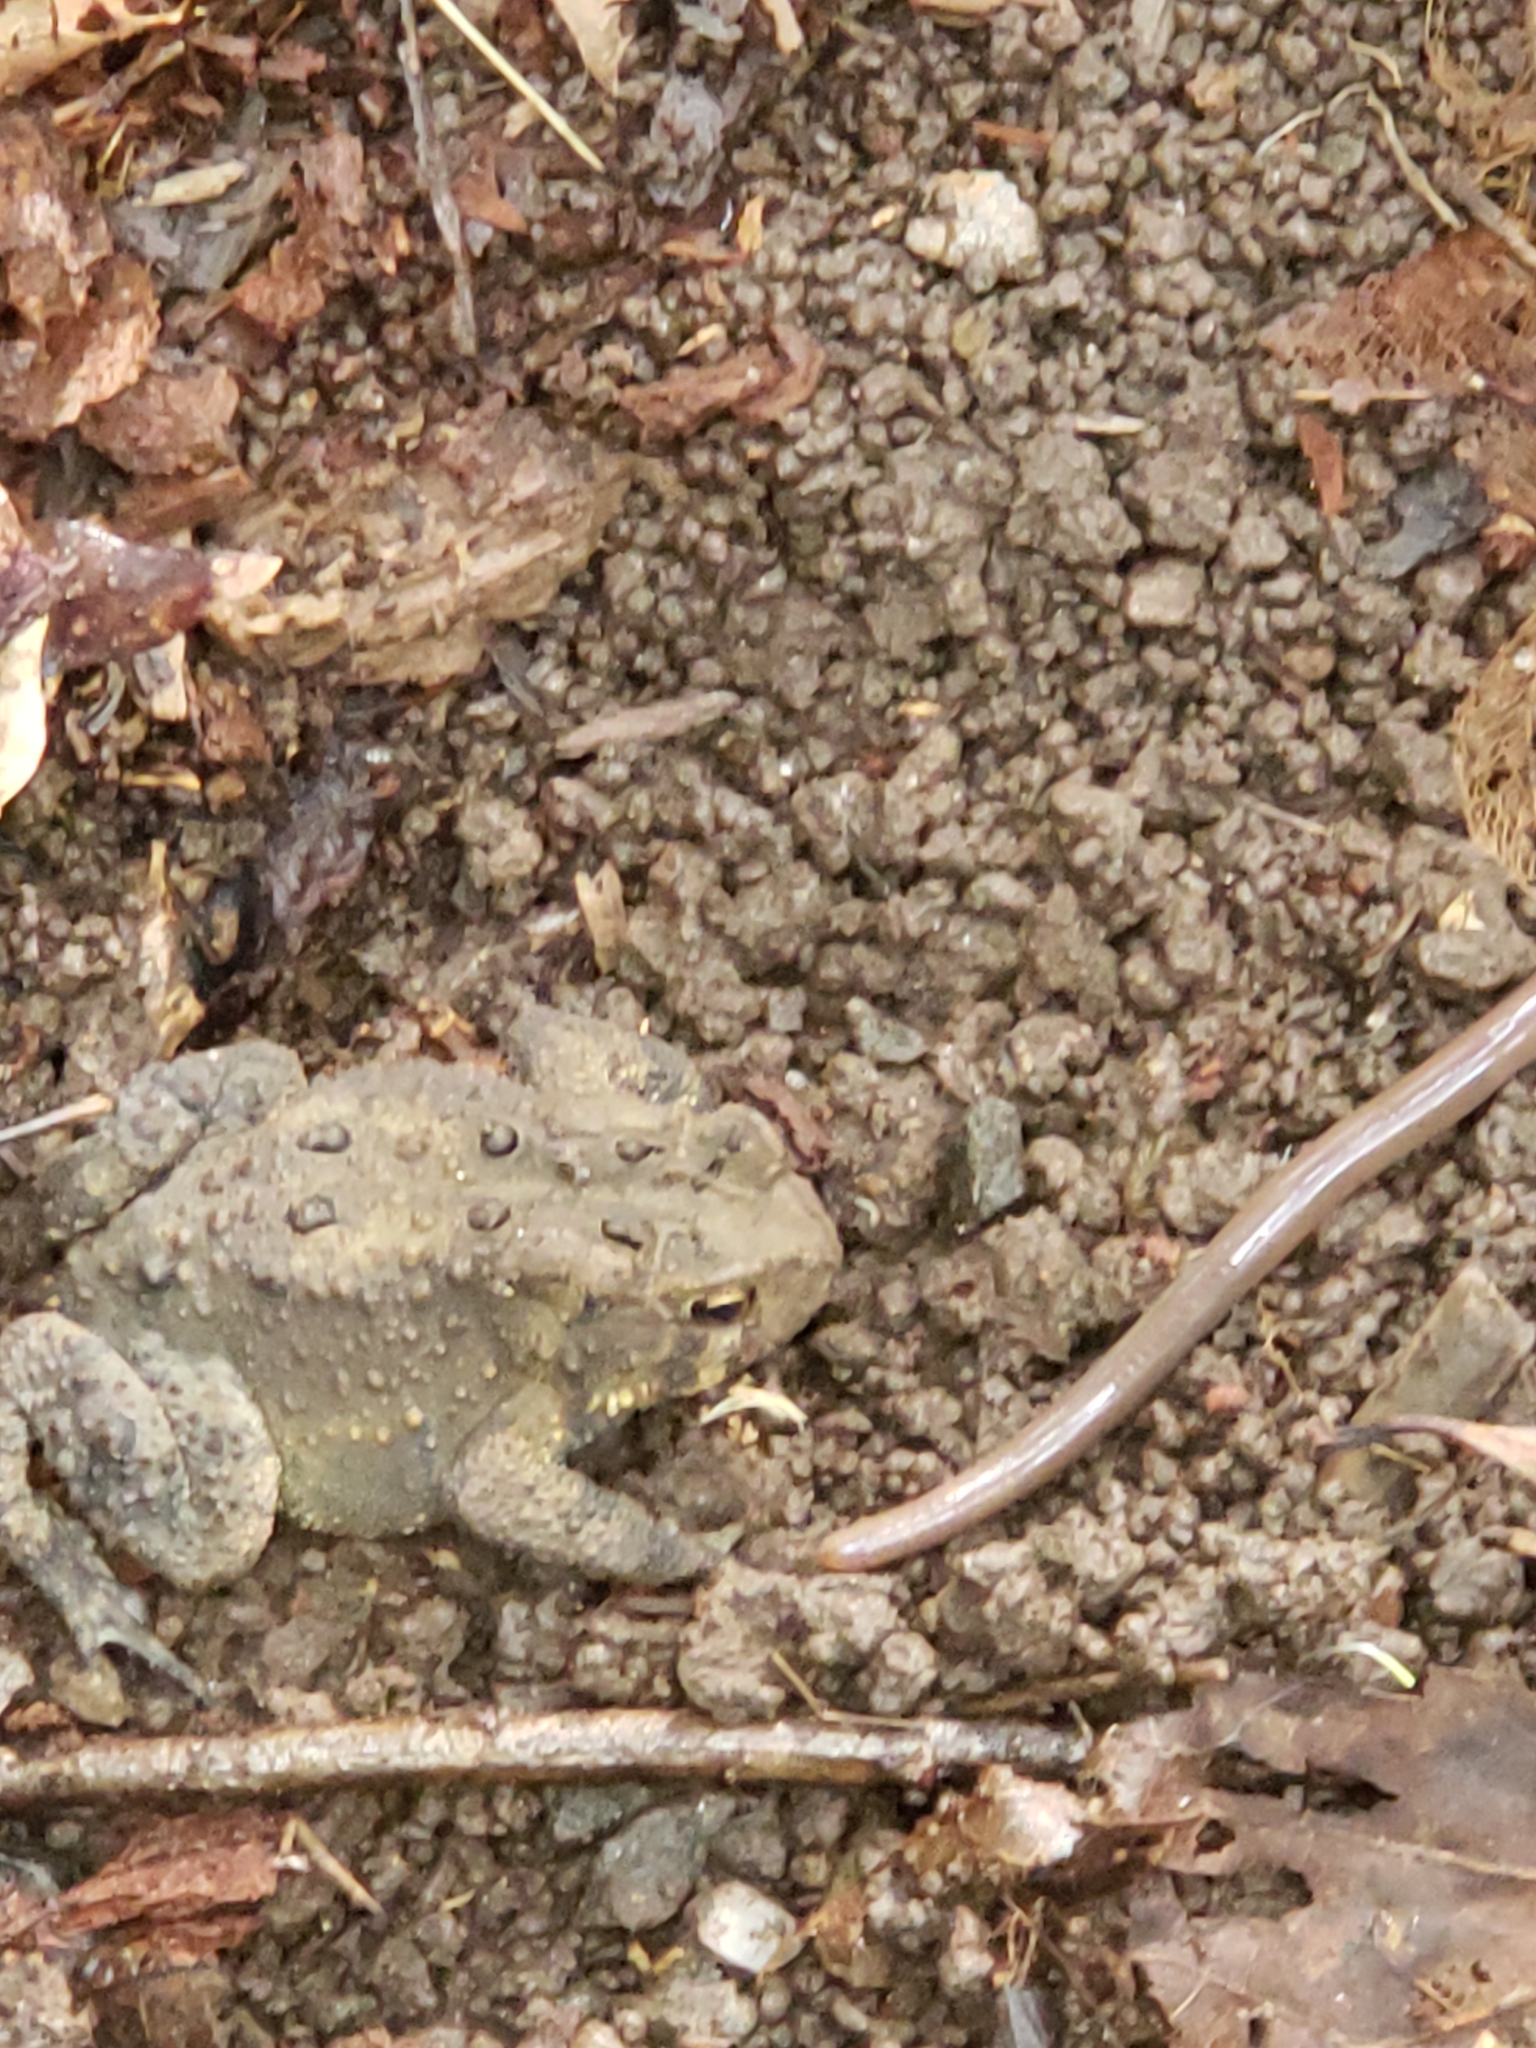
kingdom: Animalia
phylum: Chordata
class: Amphibia
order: Anura
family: Bufonidae
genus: Anaxyrus
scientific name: Anaxyrus americanus
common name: American toad
